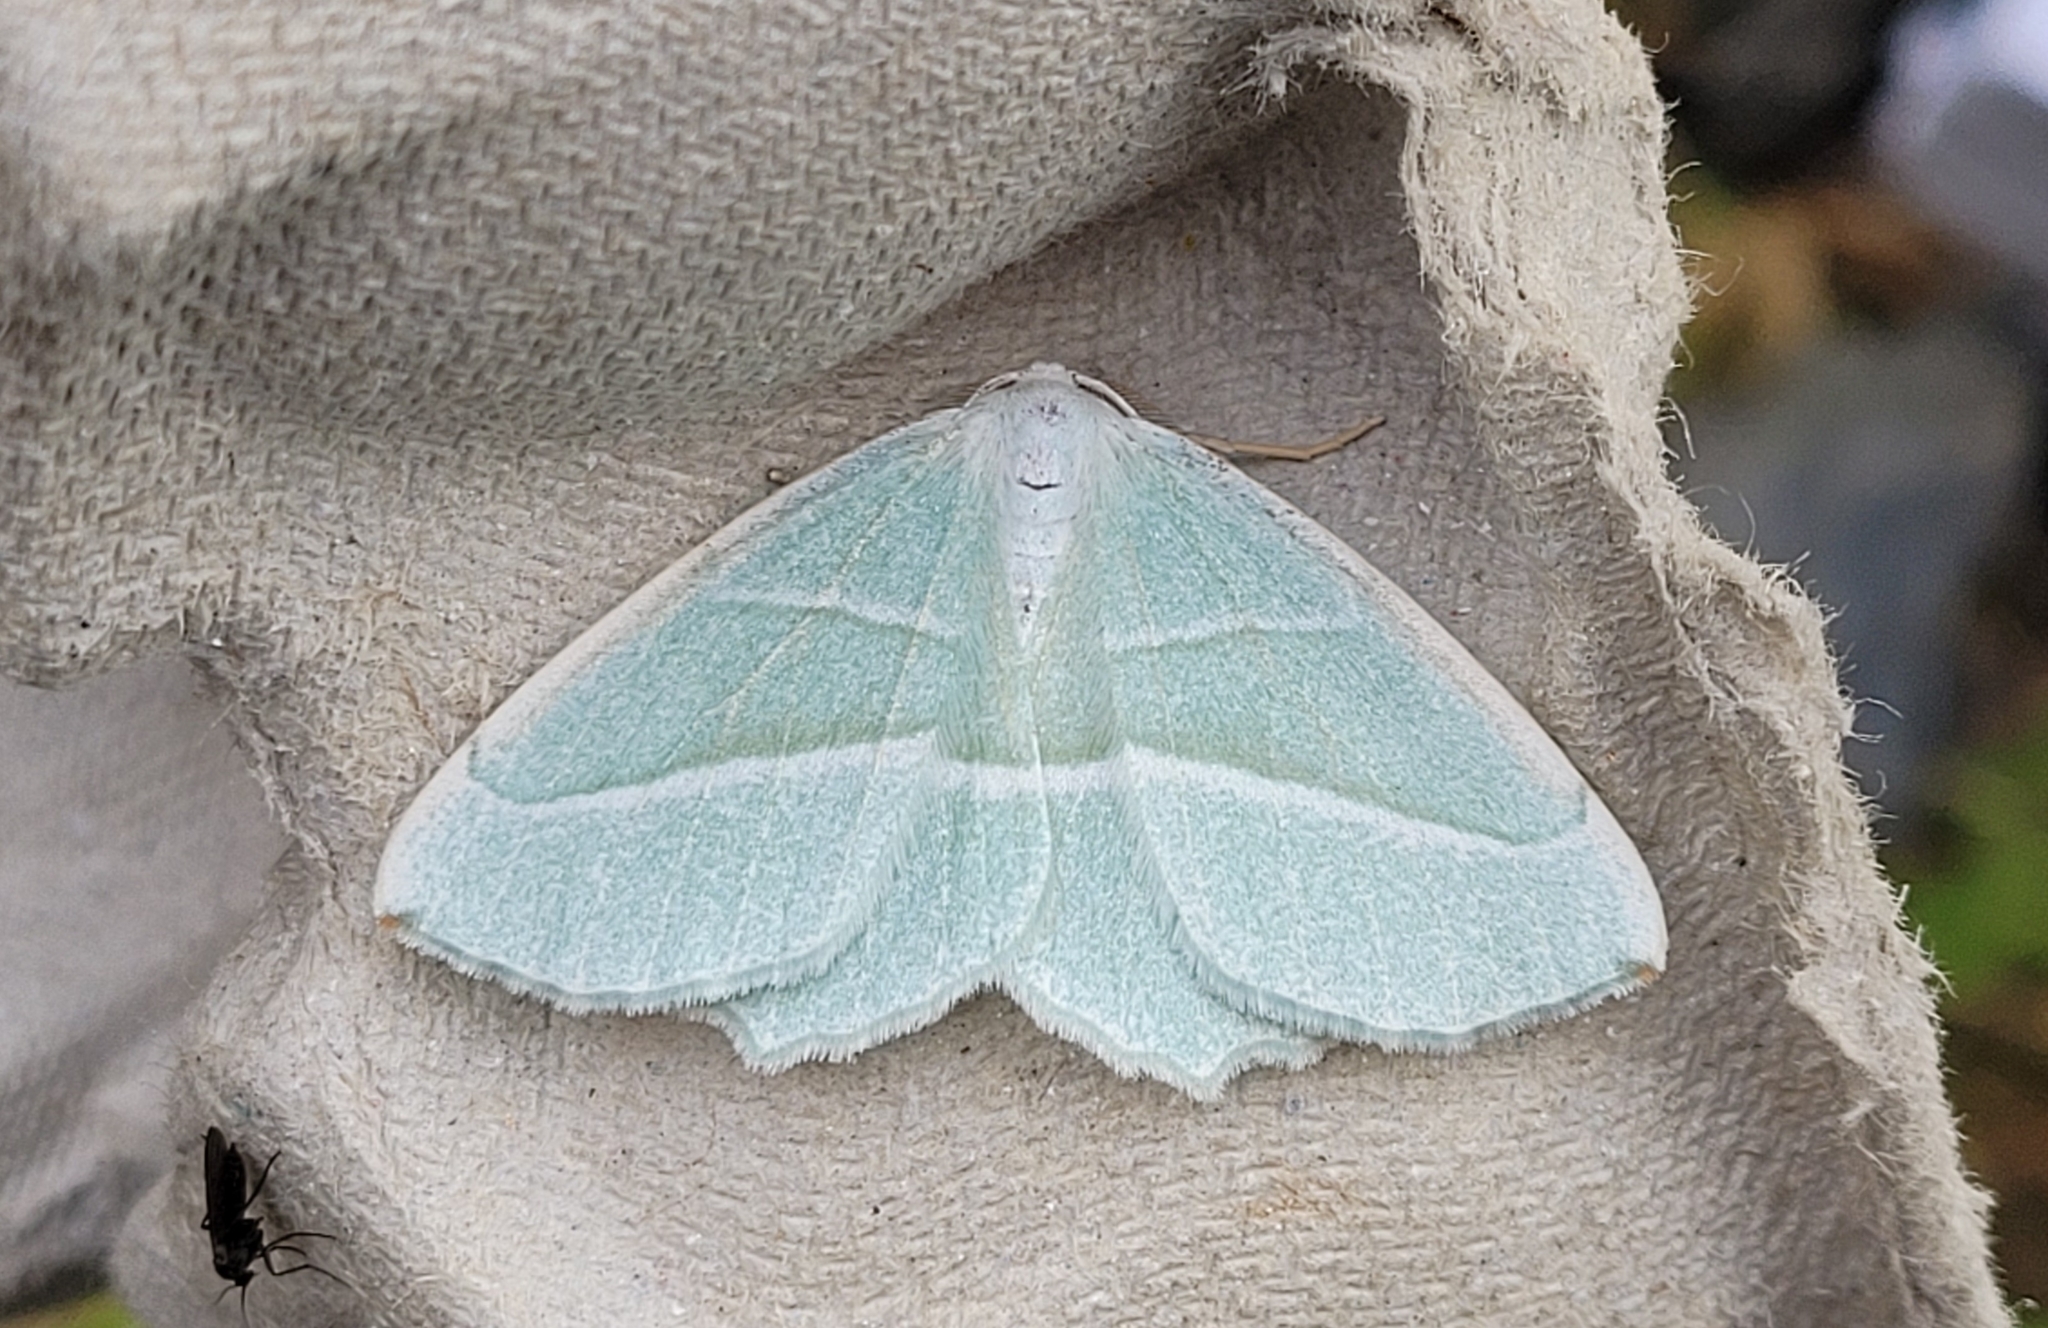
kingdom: Animalia
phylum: Arthropoda
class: Insecta
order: Lepidoptera
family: Geometridae
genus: Campaea
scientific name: Campaea margaritaria
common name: Light emerald
